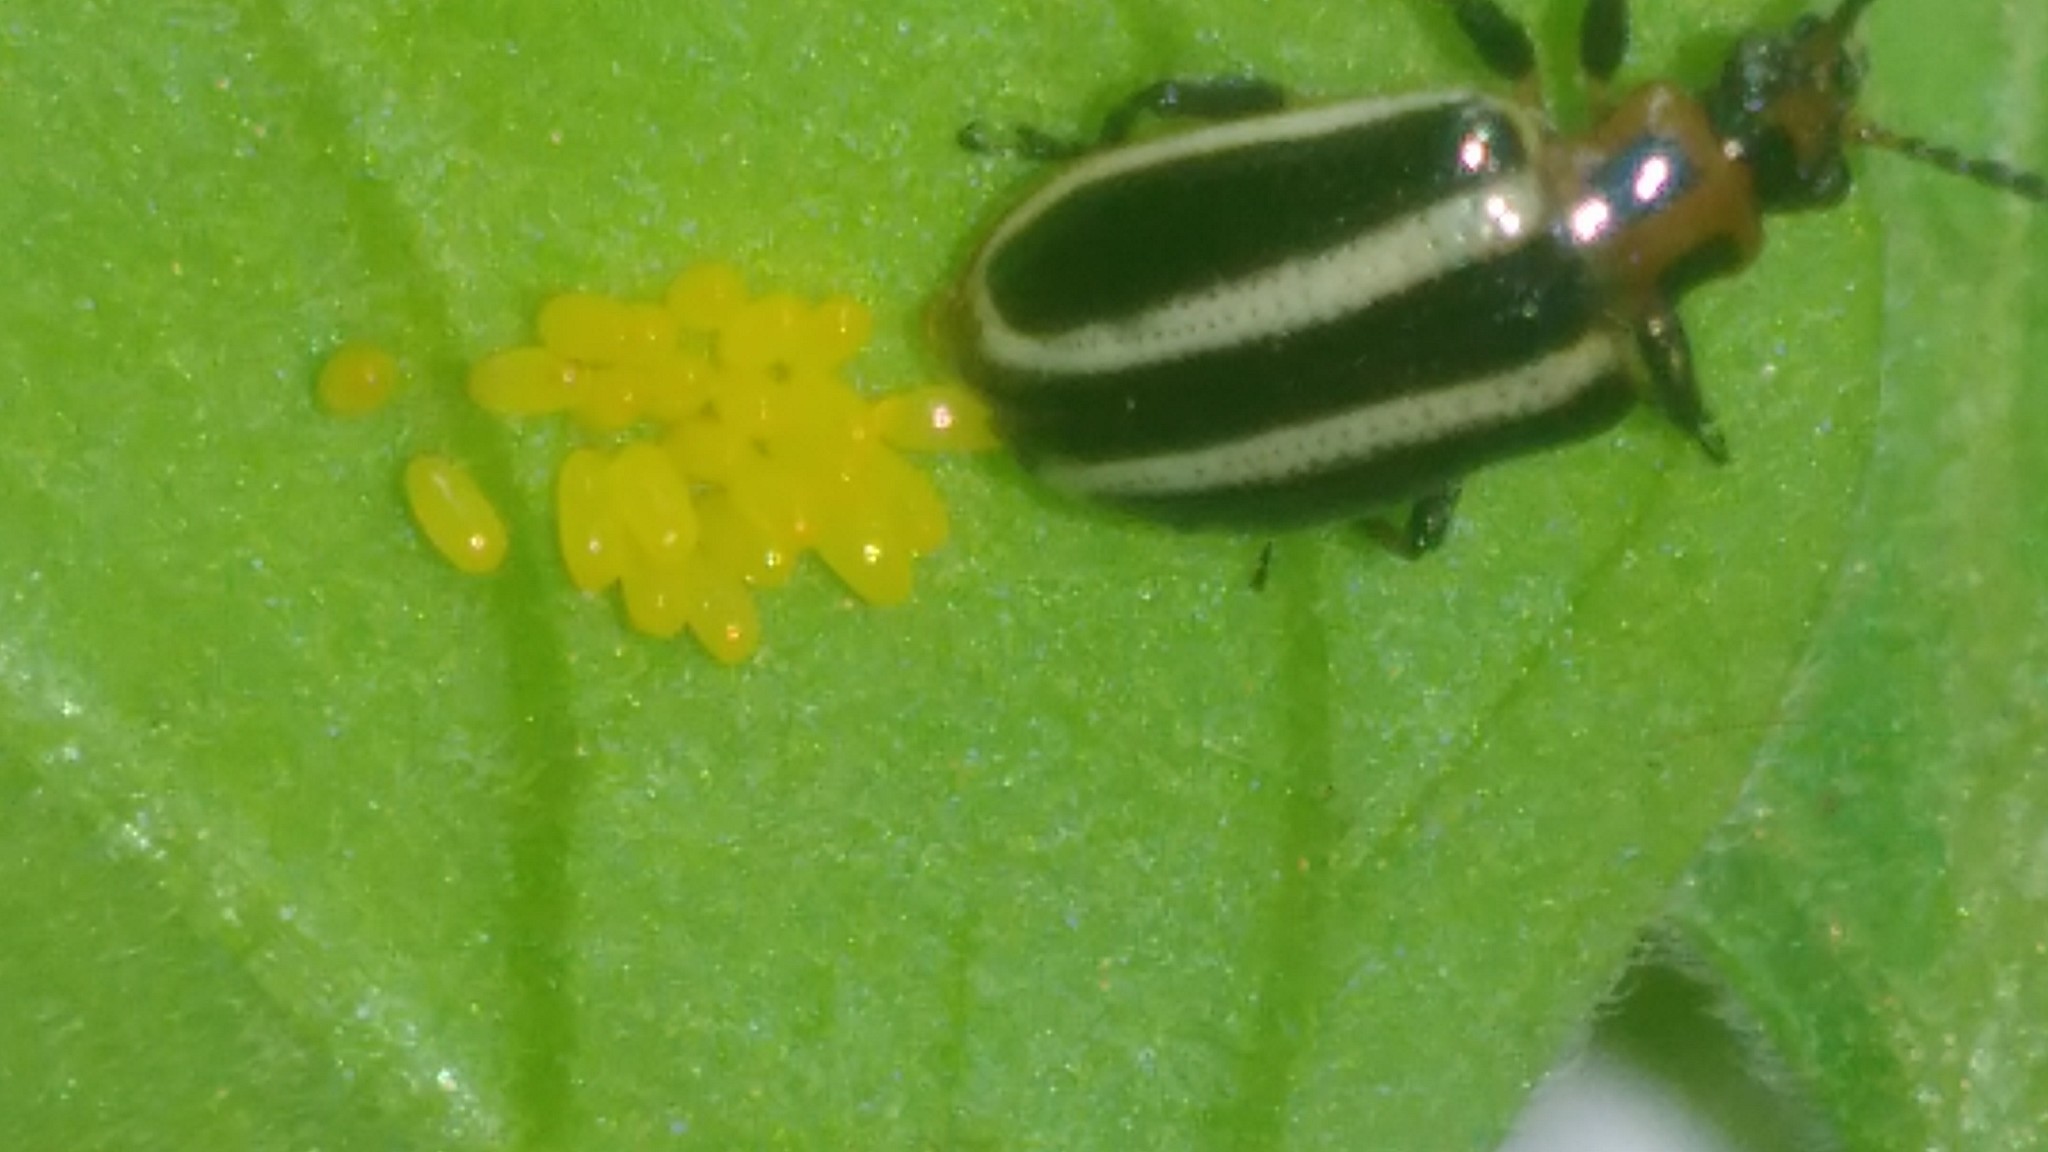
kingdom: Animalia
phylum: Arthropoda
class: Insecta
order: Coleoptera
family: Chrysomelidae
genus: Lema
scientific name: Lema bilineata
